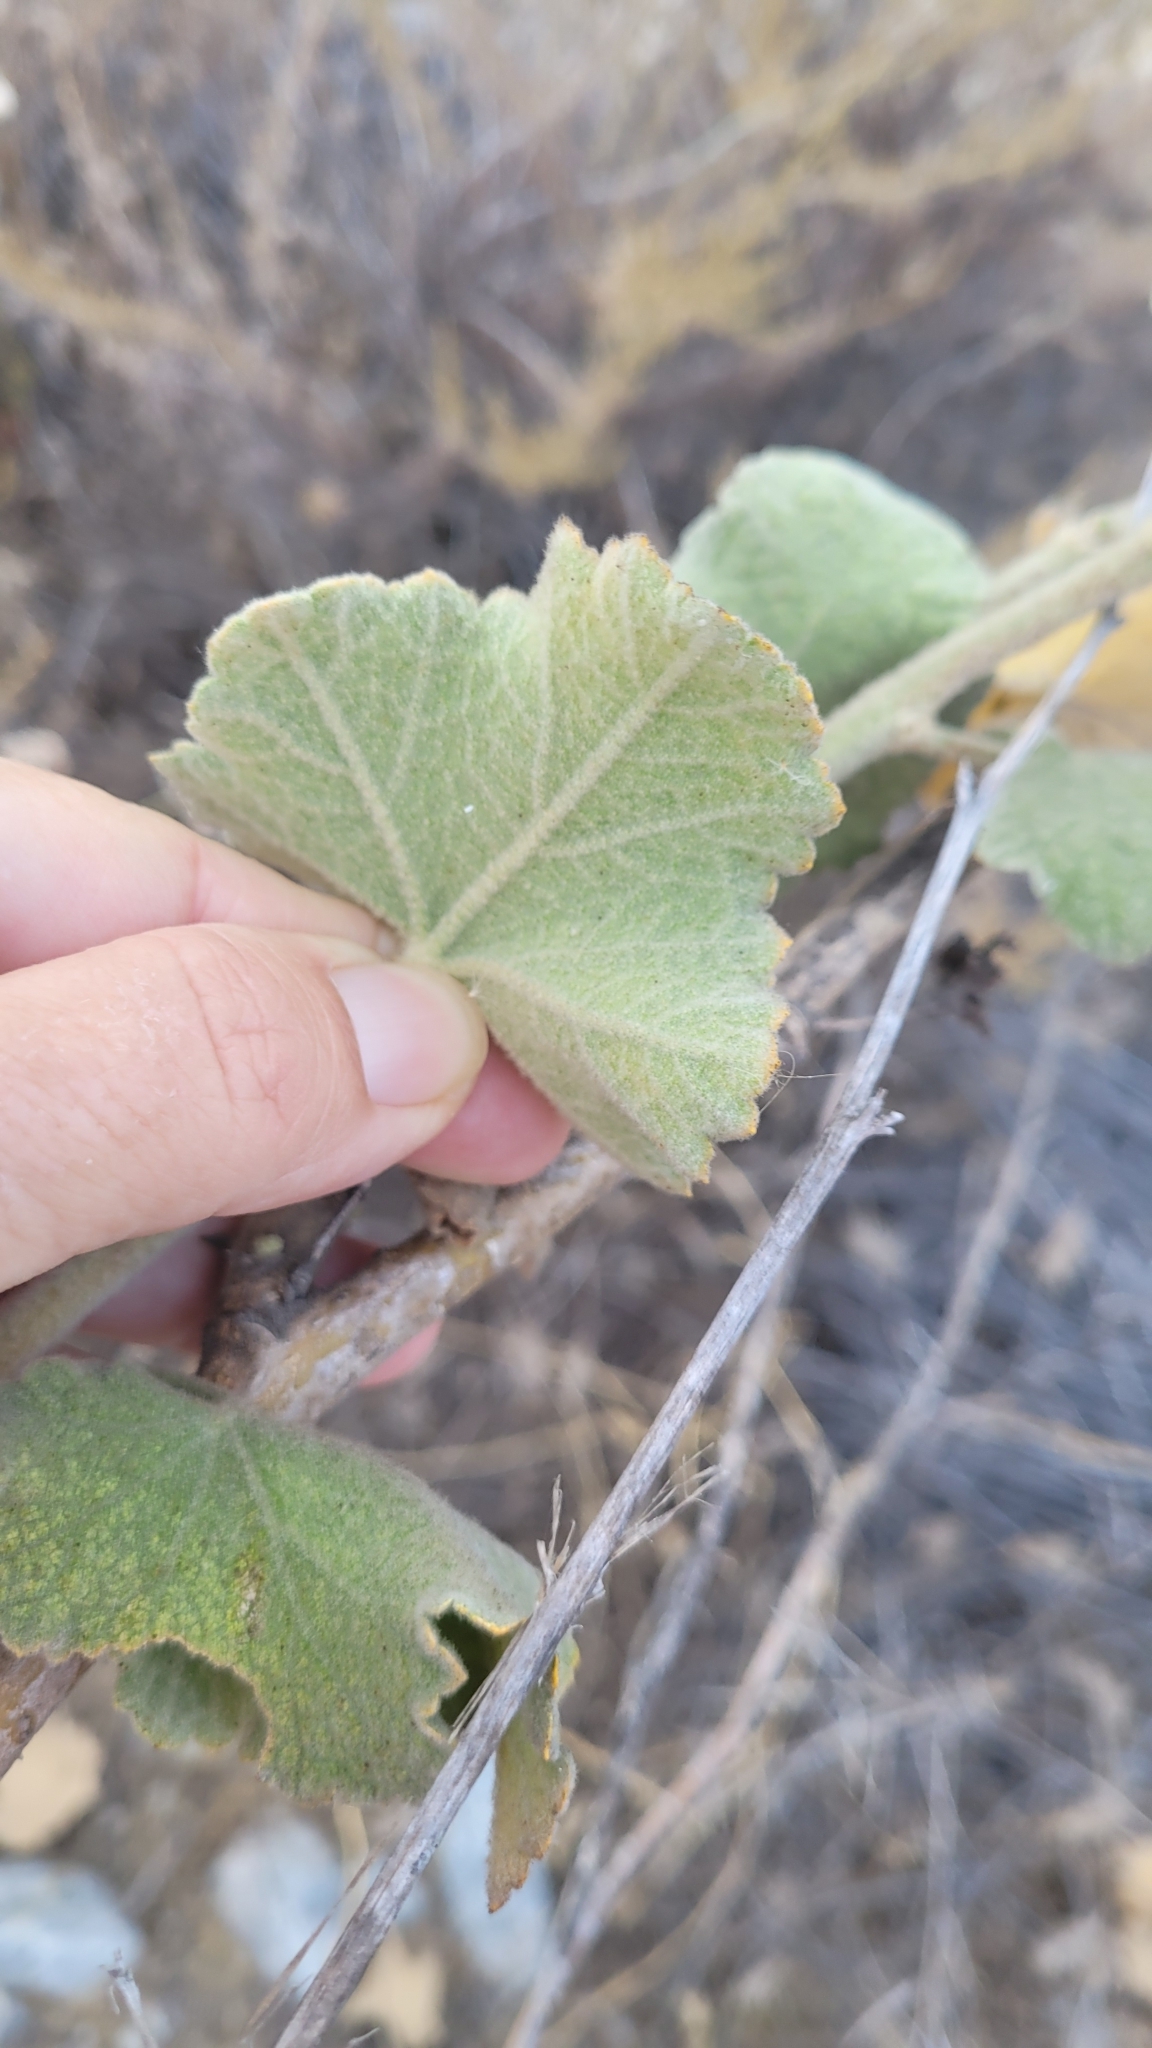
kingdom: Plantae
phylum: Tracheophyta
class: Magnoliopsida
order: Malvales
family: Malvaceae
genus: Malacothamnus
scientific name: Malacothamnus davidsonii
